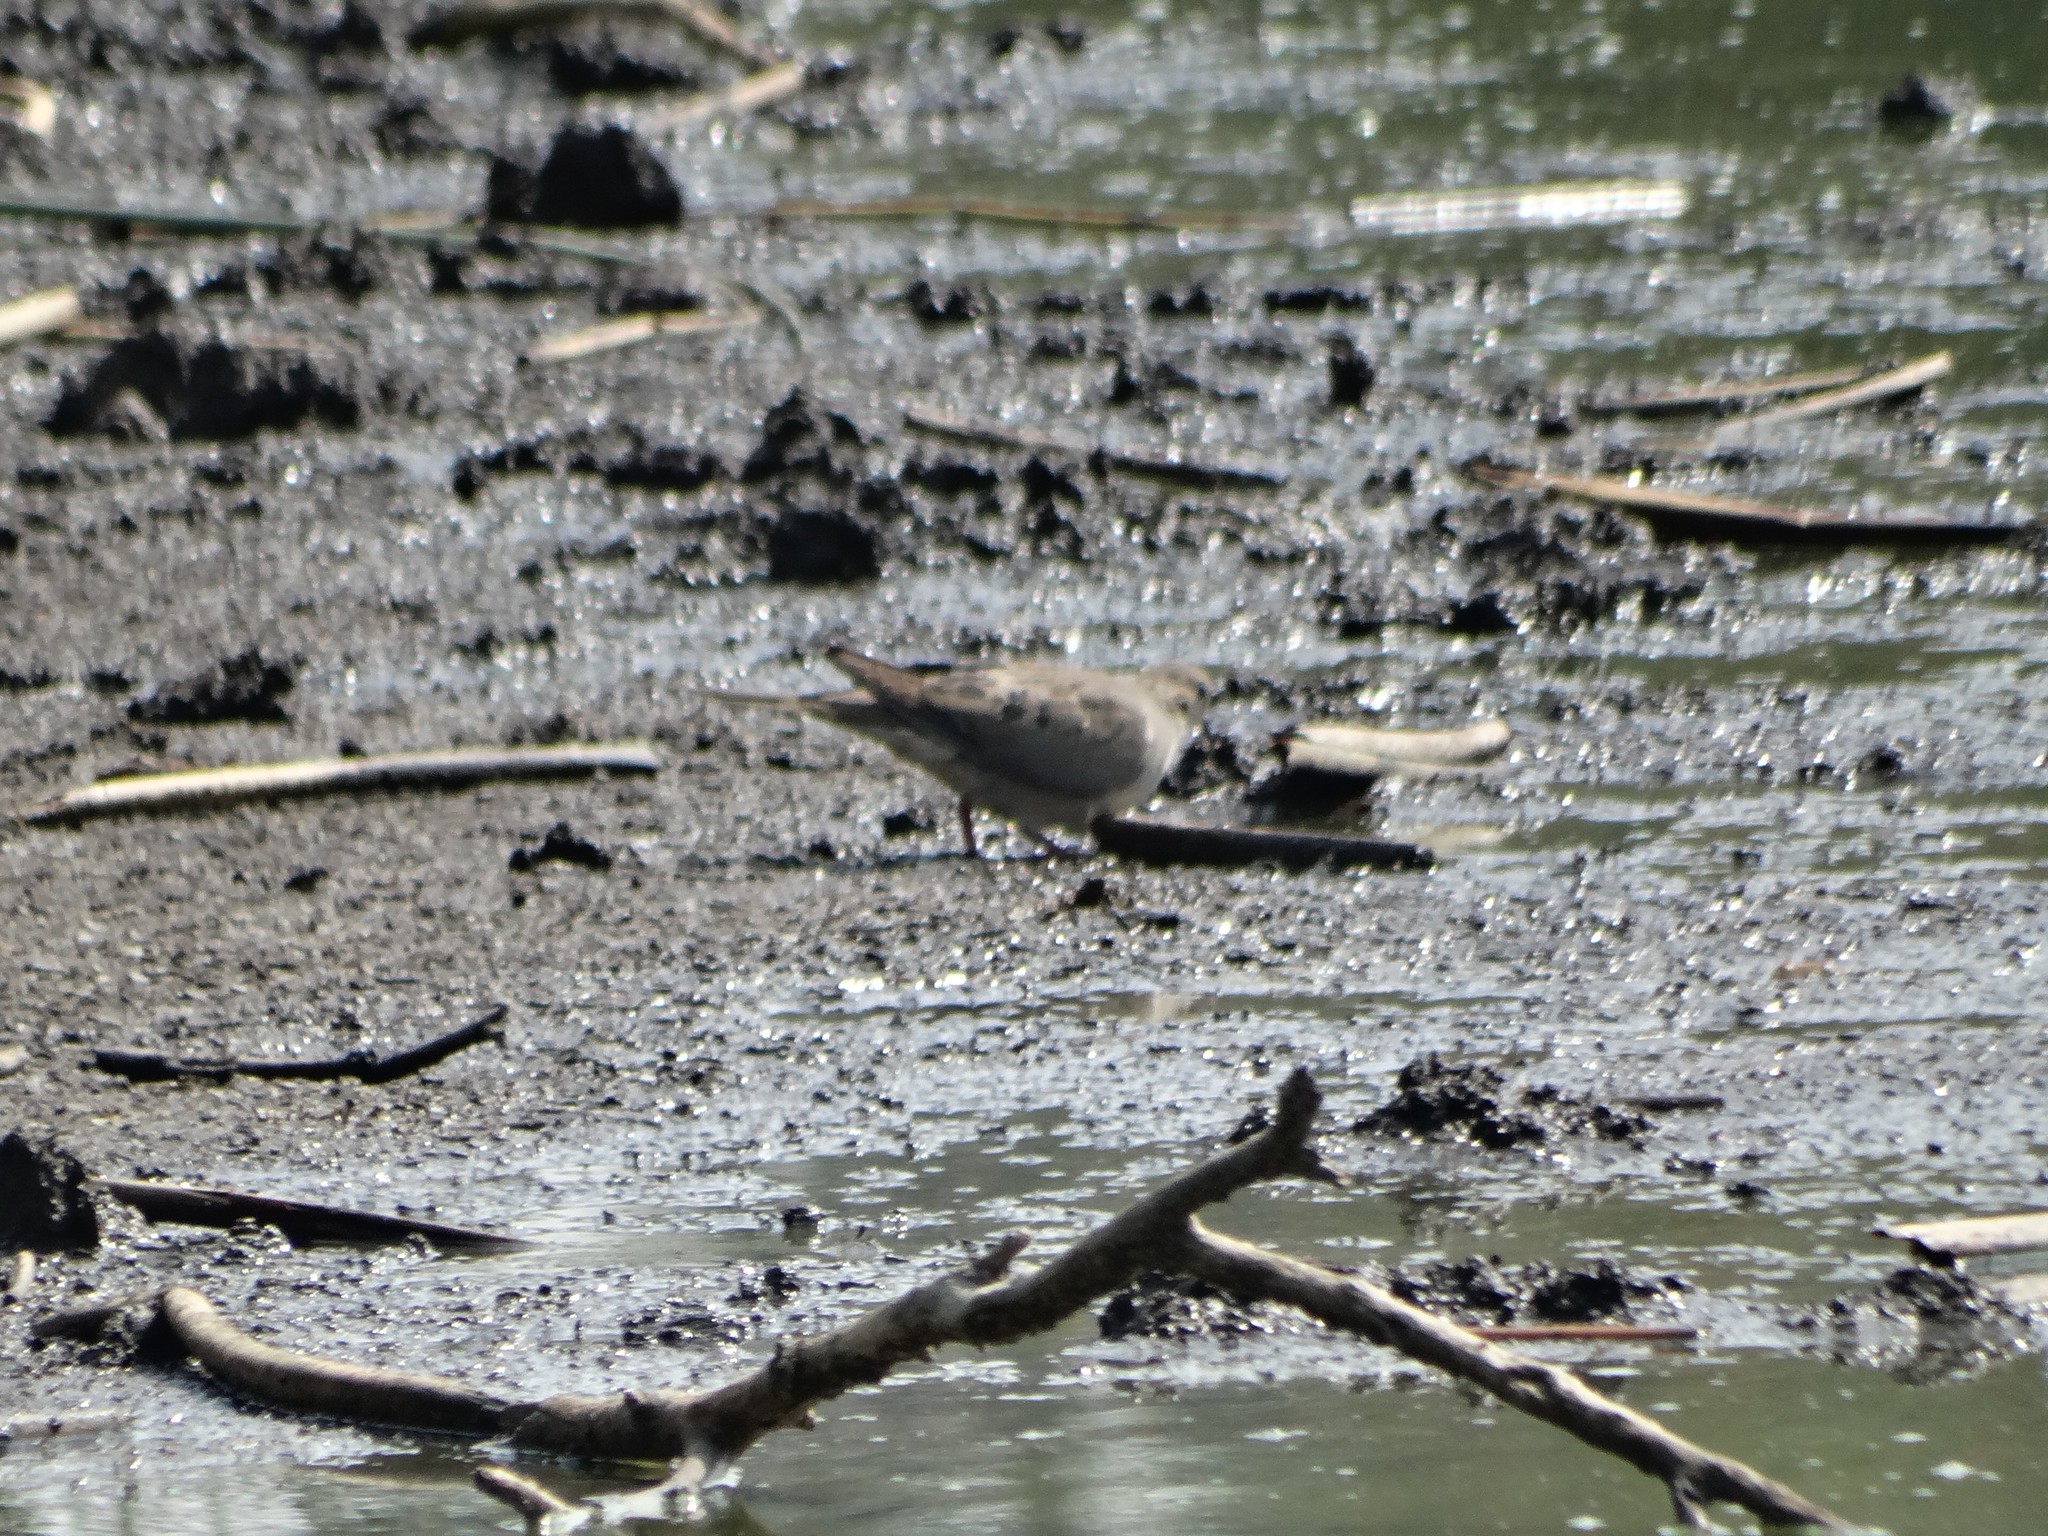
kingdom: Animalia
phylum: Chordata
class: Aves
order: Columbiformes
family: Columbidae
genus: Zenaida
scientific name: Zenaida macroura
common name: Mourning dove
